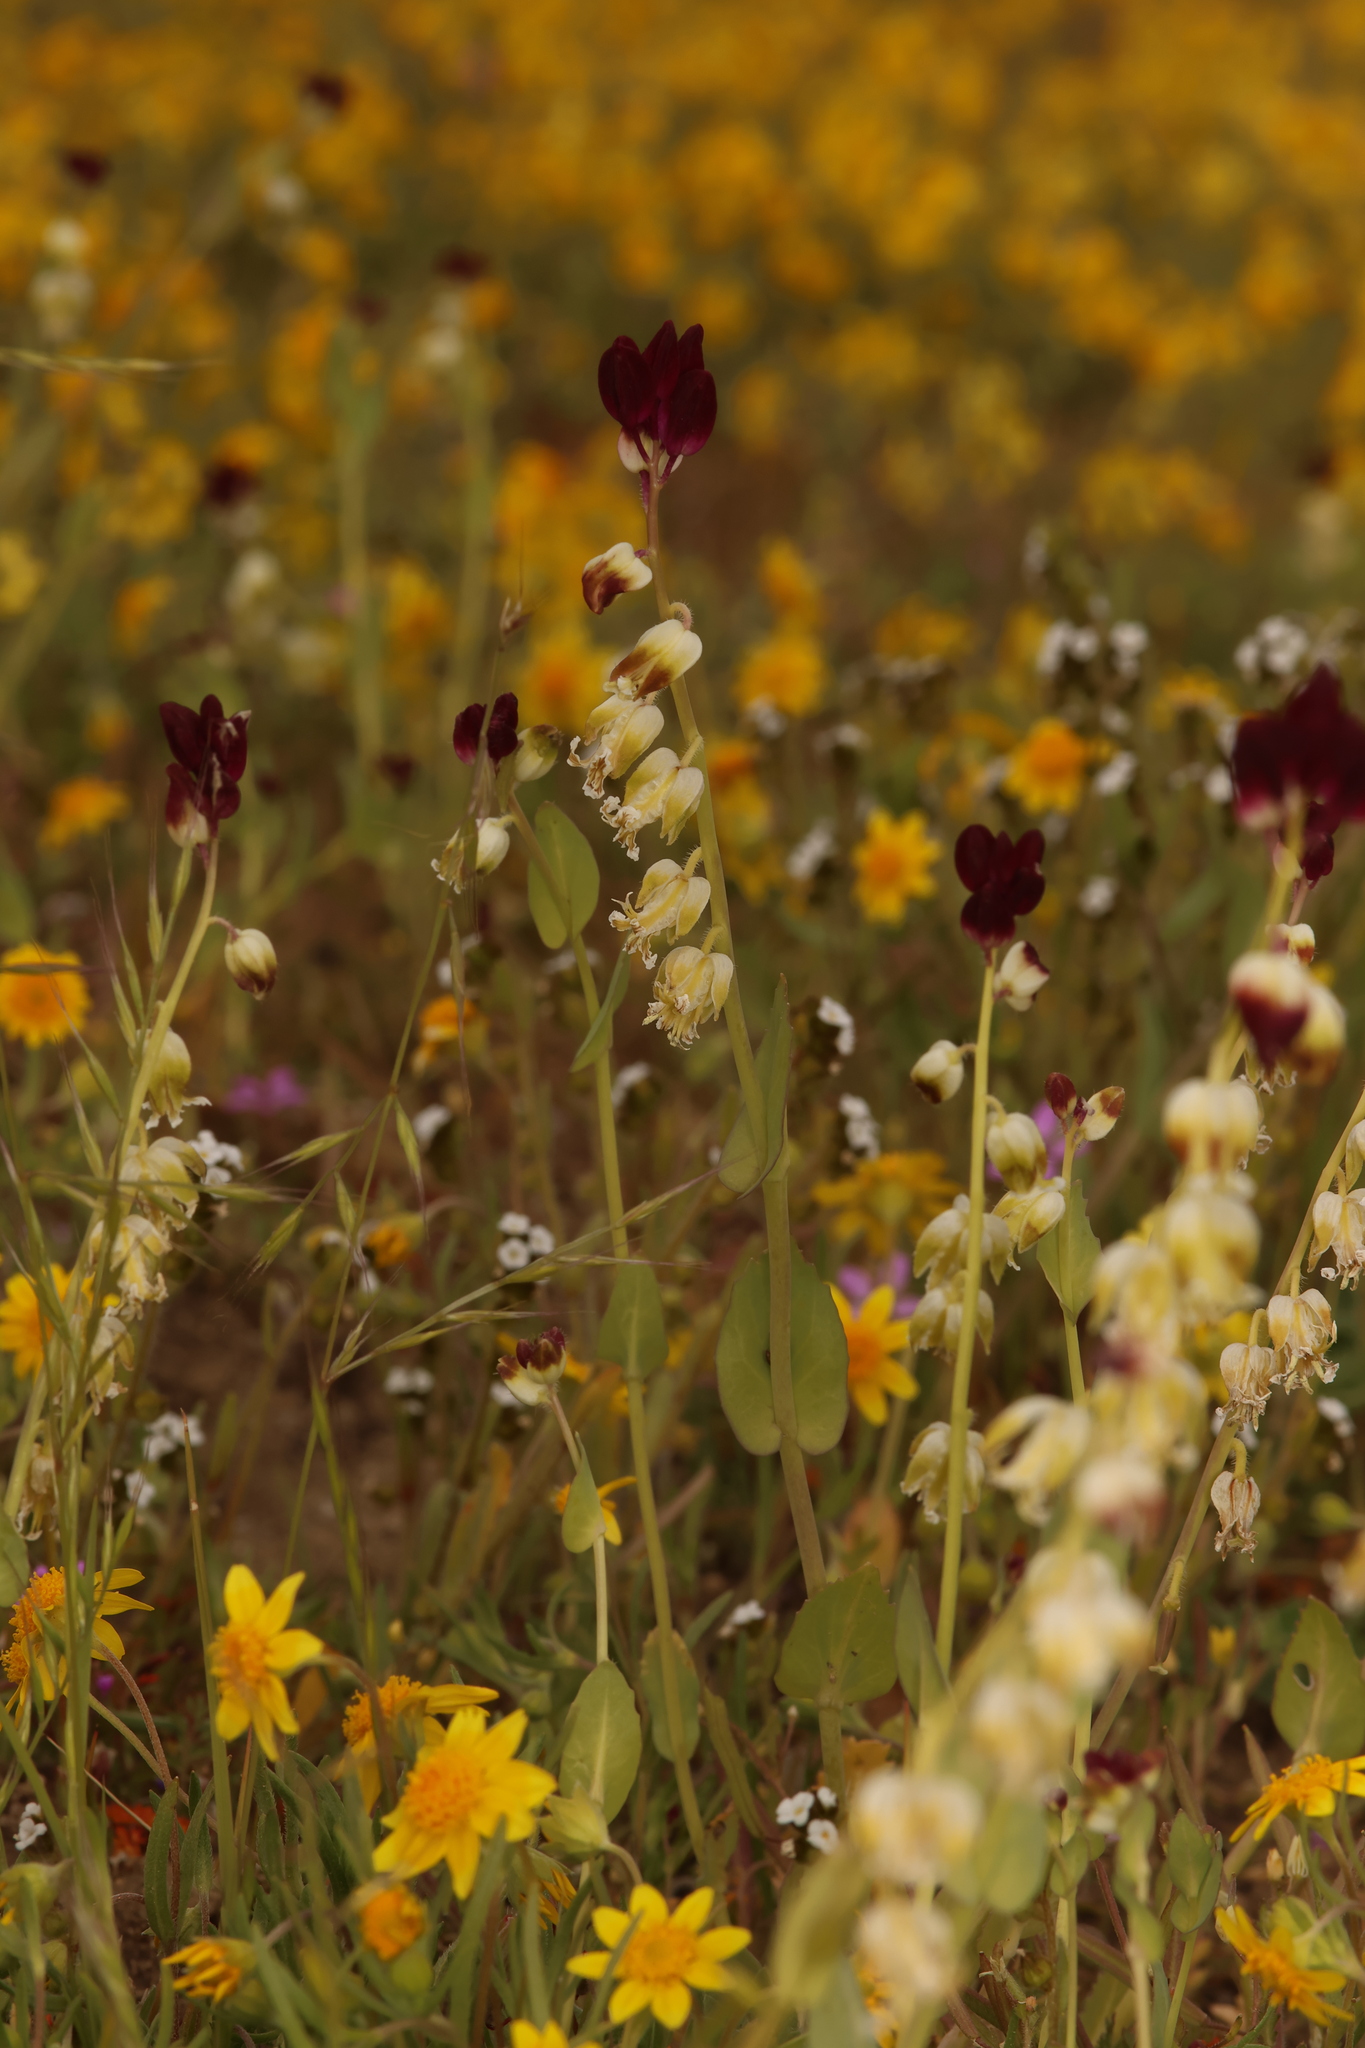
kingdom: Plantae
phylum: Tracheophyta
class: Magnoliopsida
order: Brassicales
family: Brassicaceae
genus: Streptanthus
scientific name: Streptanthus californicus
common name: California-jewel-flower
